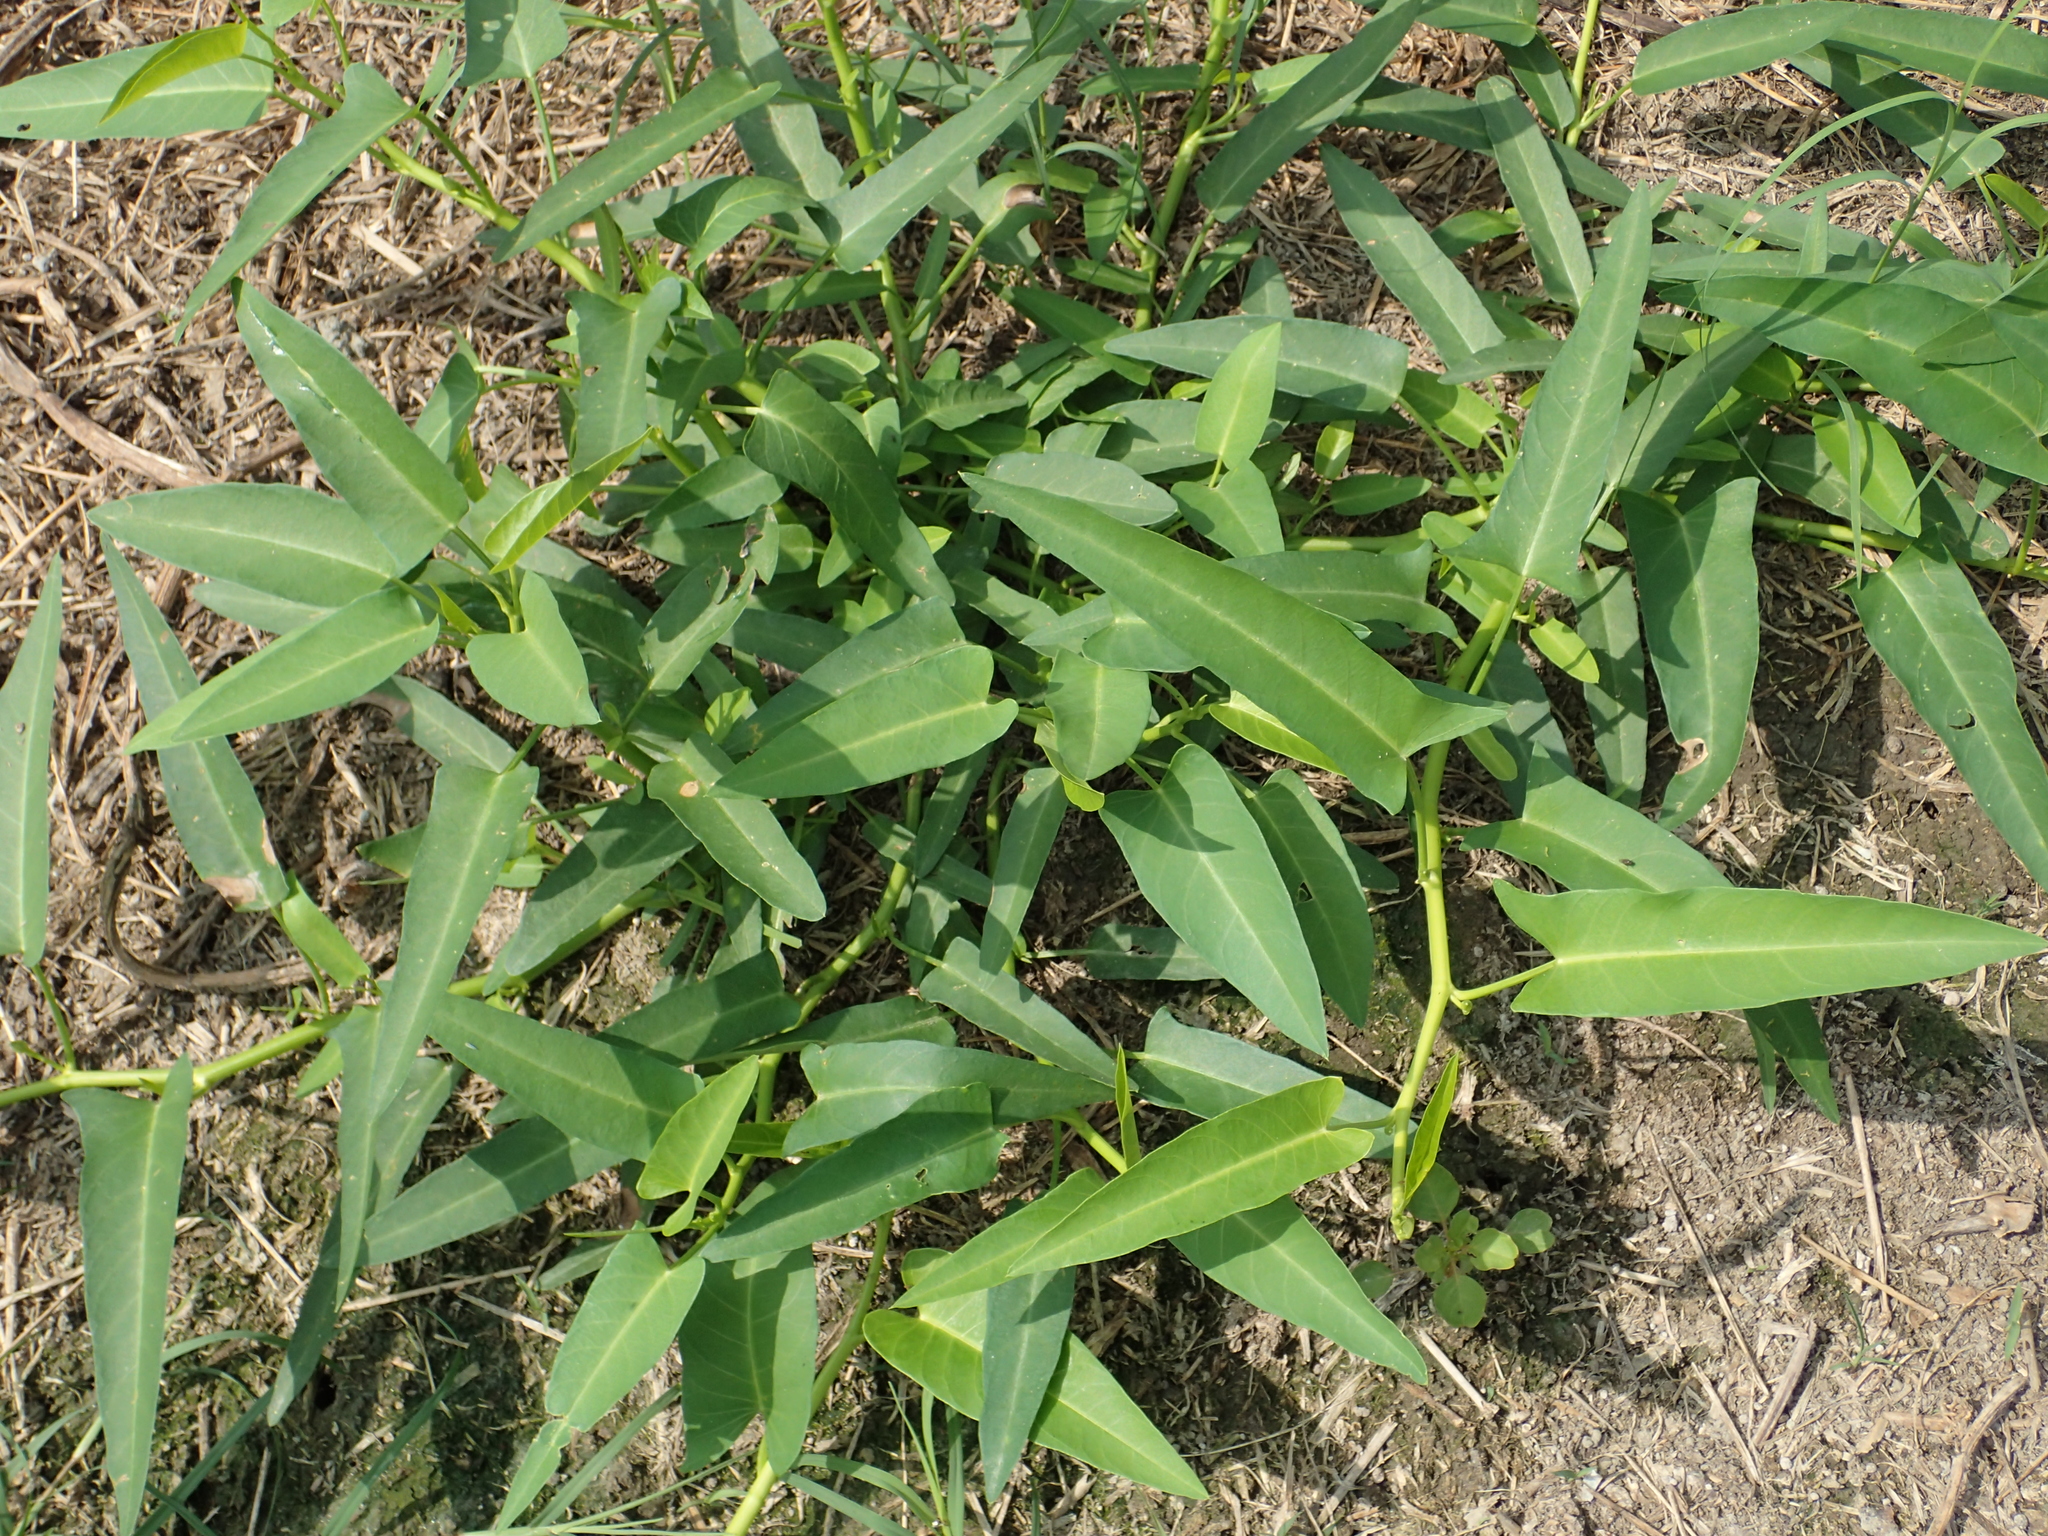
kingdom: Plantae
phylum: Tracheophyta
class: Magnoliopsida
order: Solanales
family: Convolvulaceae
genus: Ipomoea
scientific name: Ipomoea aquatica
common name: Swamp morning-glory
